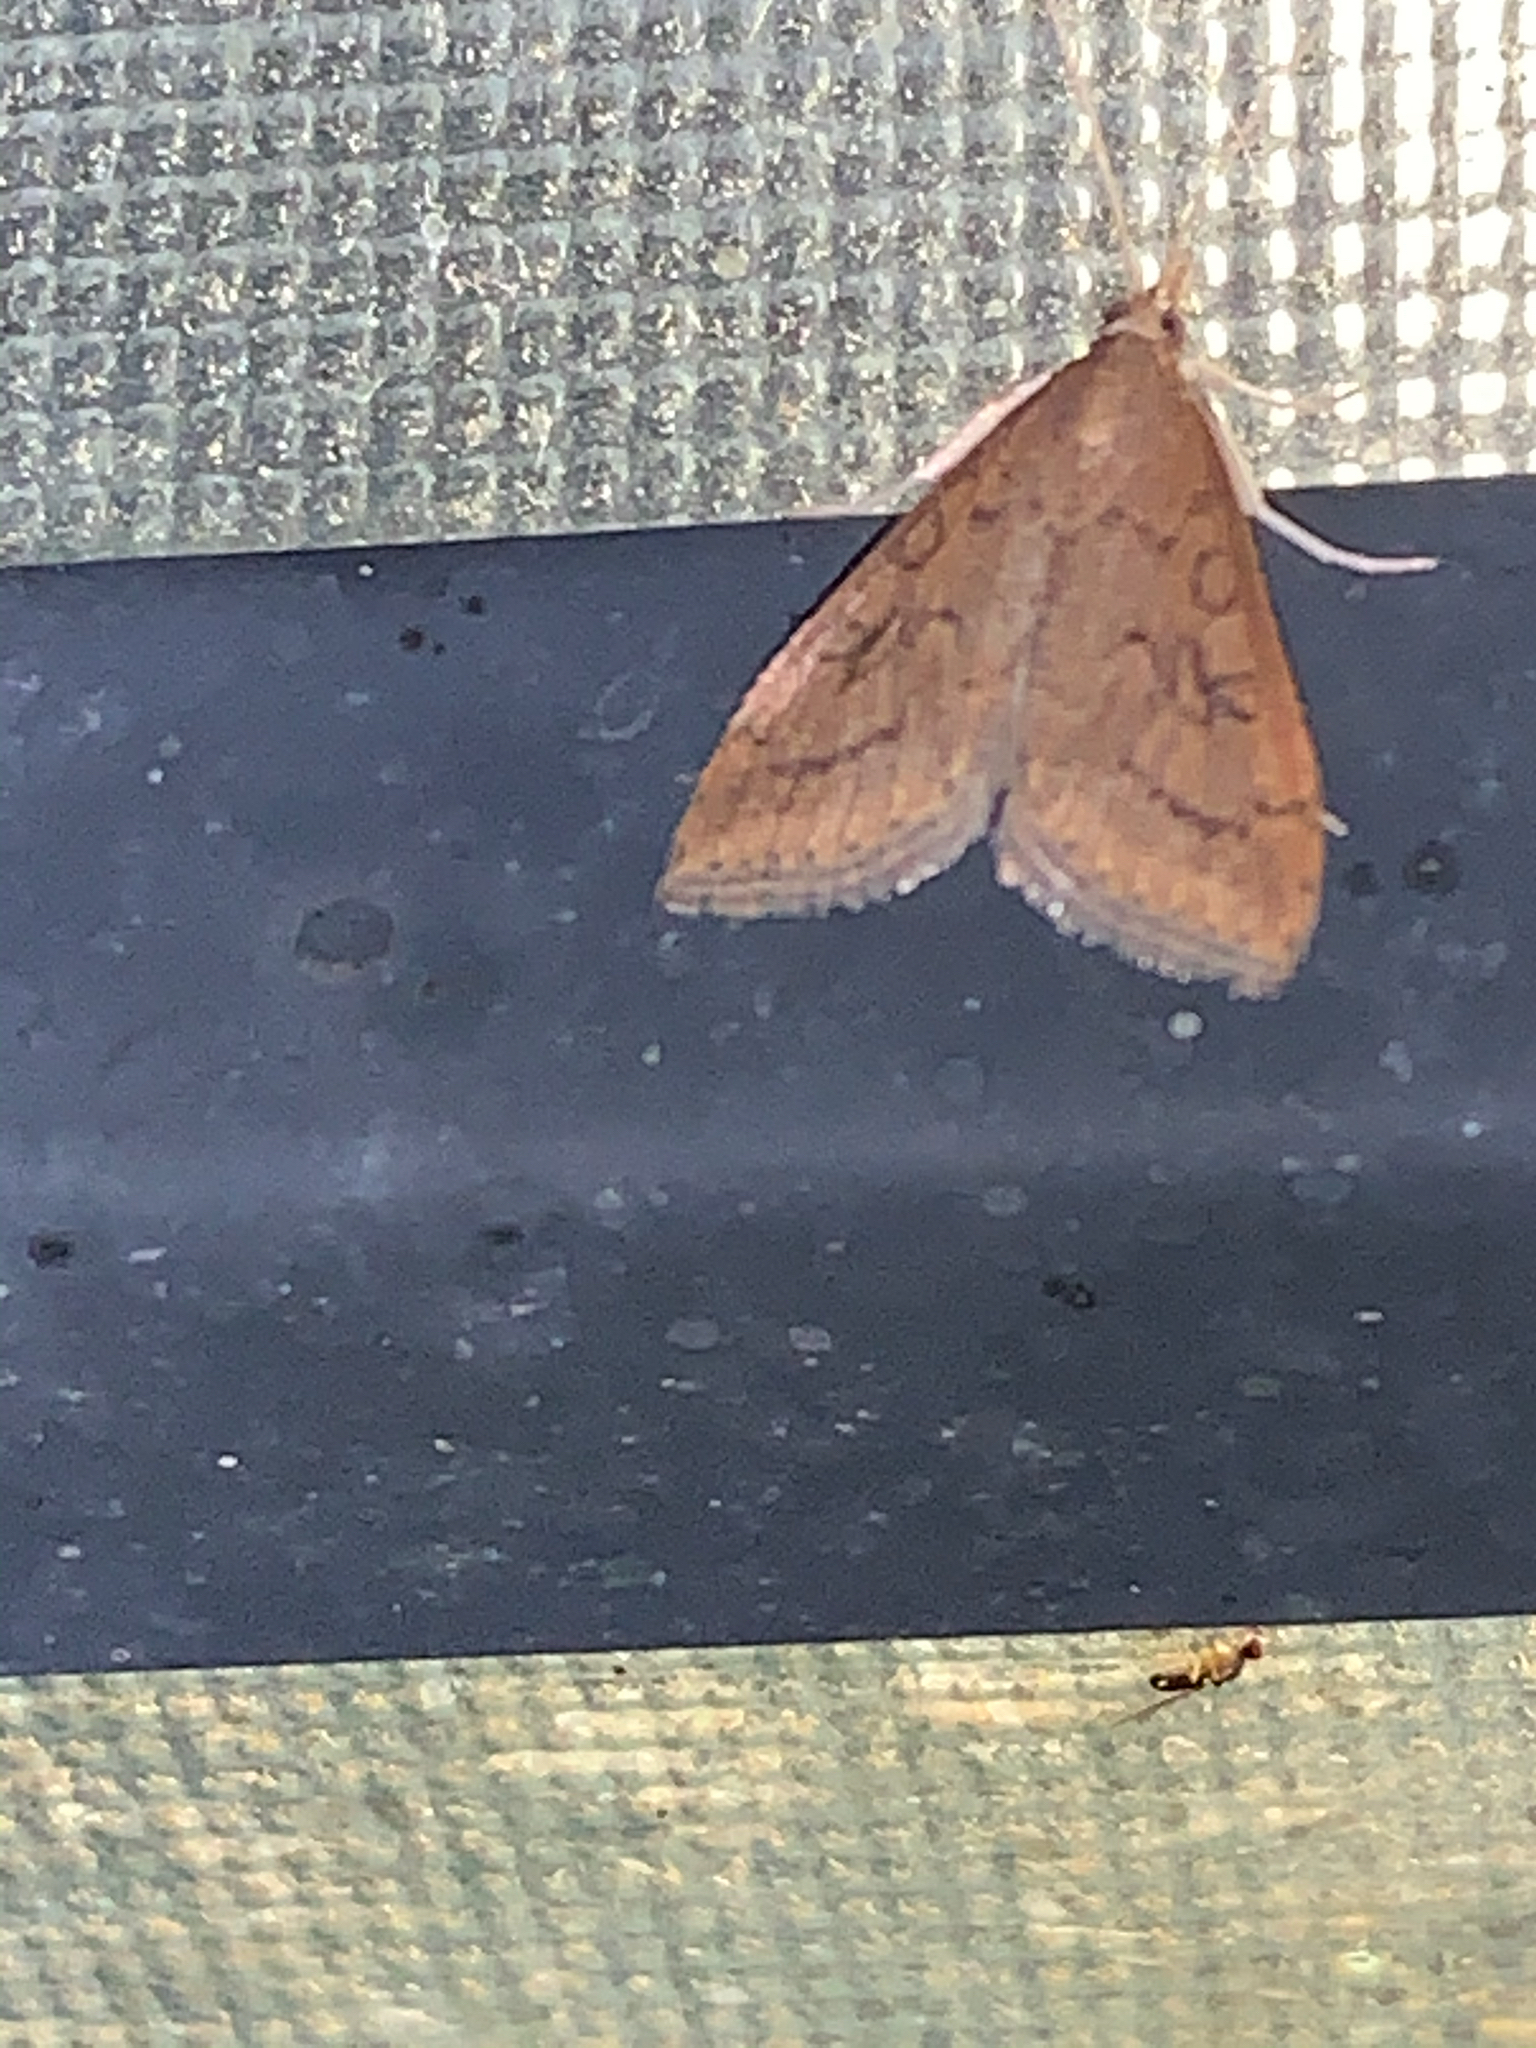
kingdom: Animalia
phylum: Arthropoda
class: Insecta
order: Lepidoptera
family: Crambidae
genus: Udea
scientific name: Udea rubigalis
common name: Celery leaftier moth
